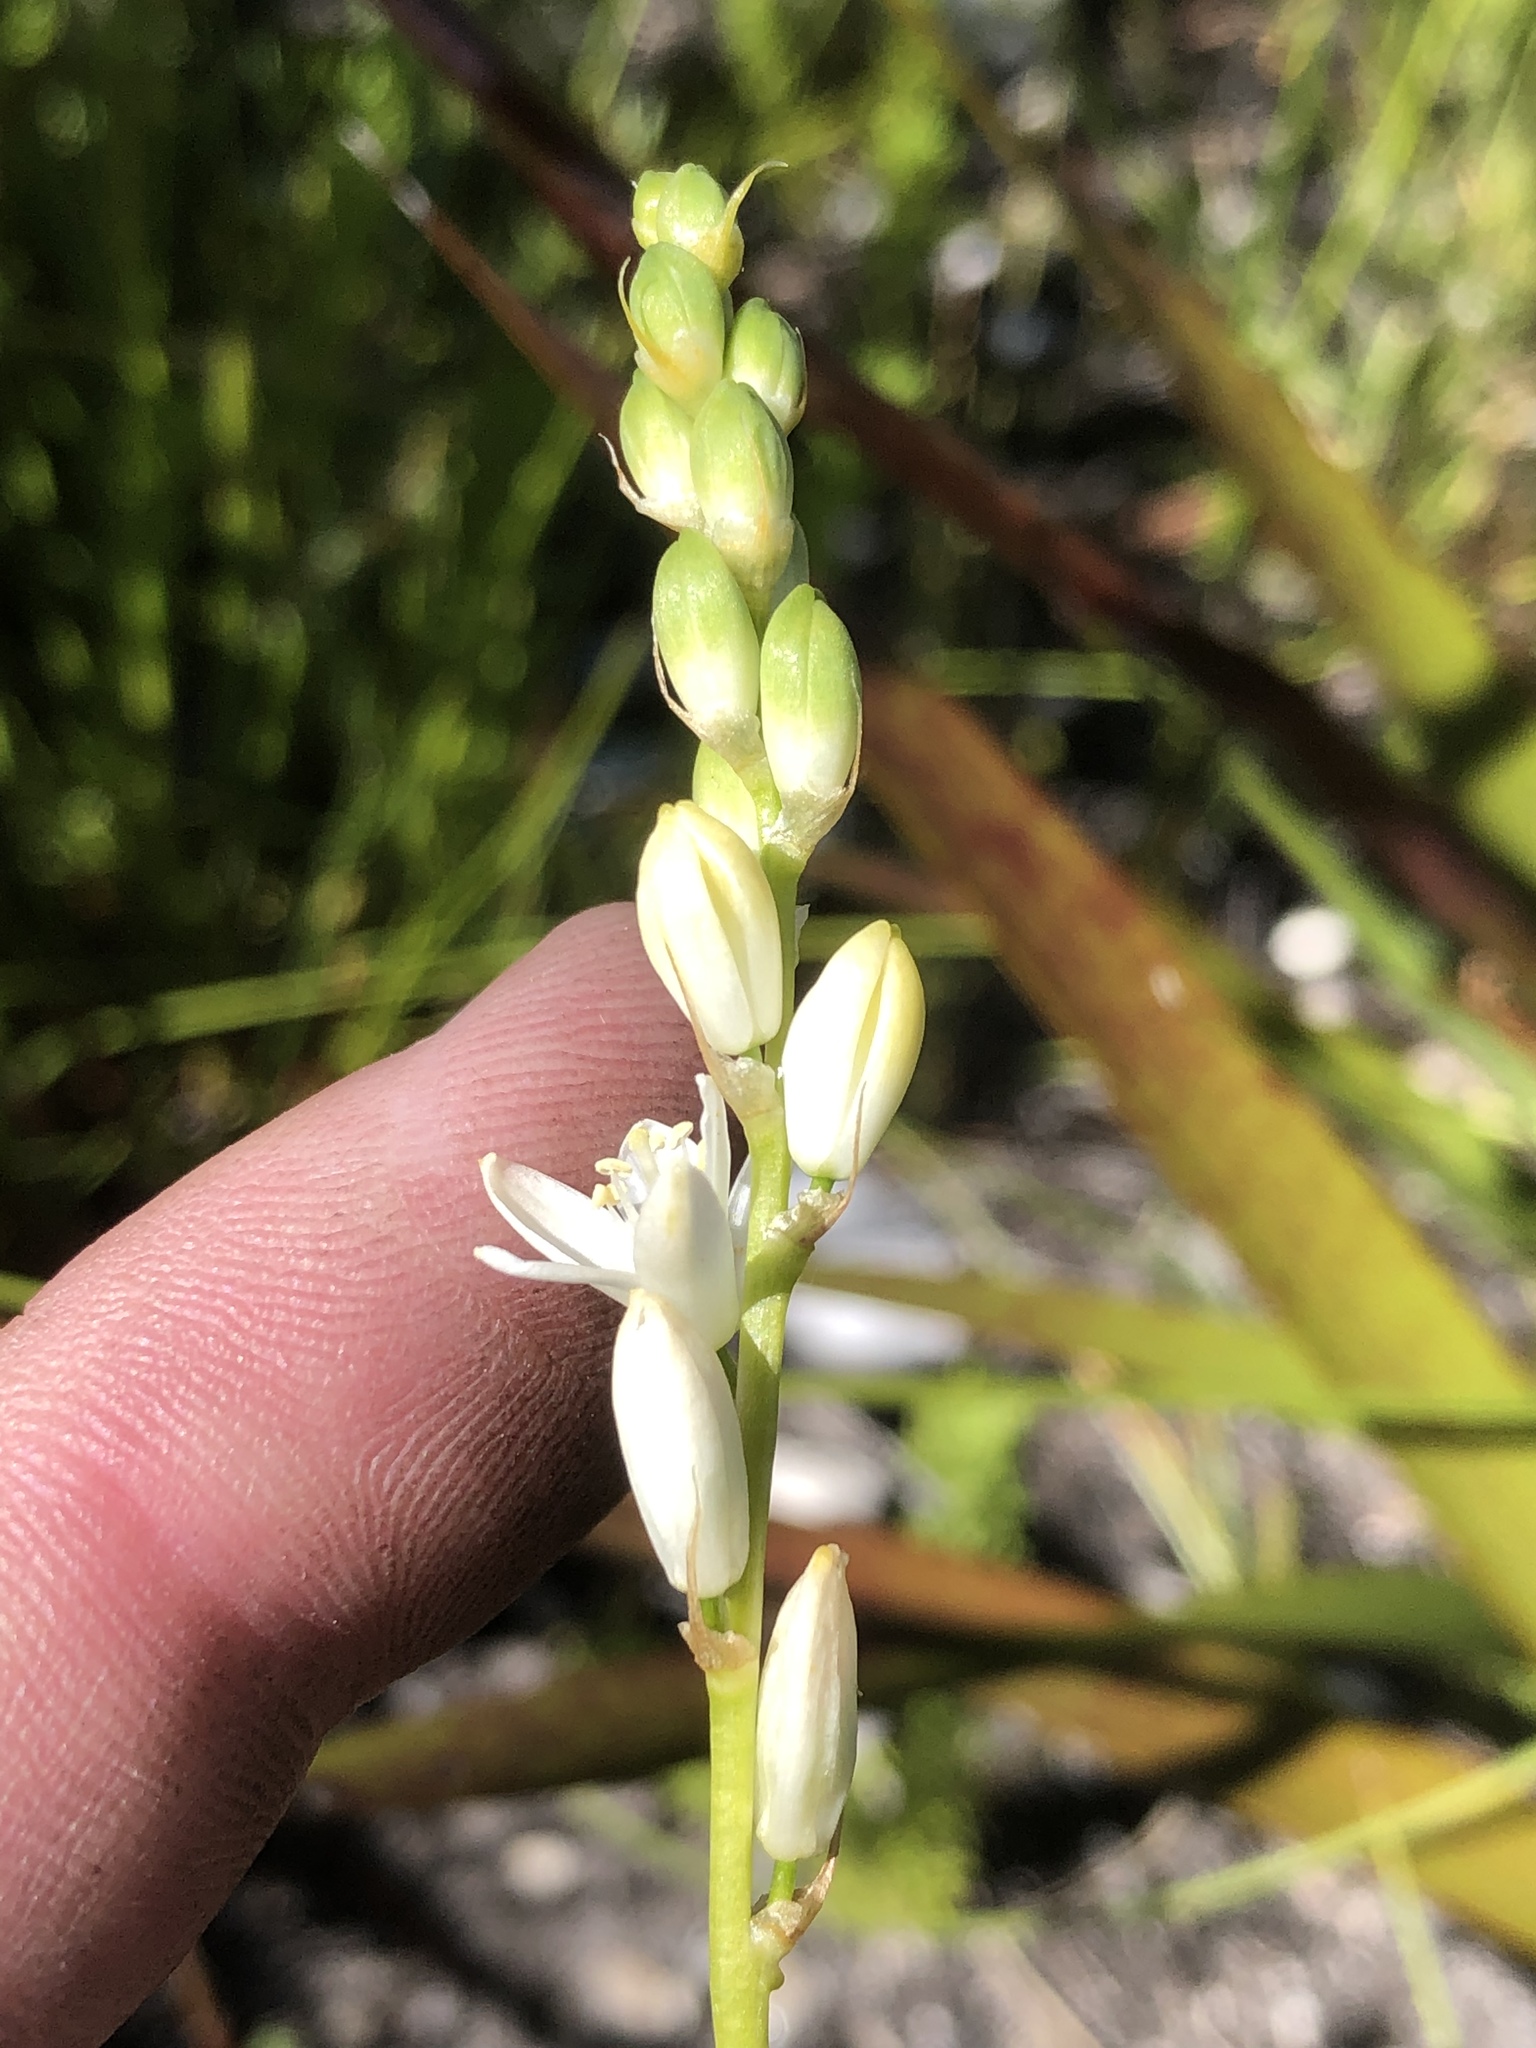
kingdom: Plantae
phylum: Tracheophyta
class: Liliopsida
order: Asparagales
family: Asparagaceae
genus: Ornithogalum
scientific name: Ornithogalum graminifolium
